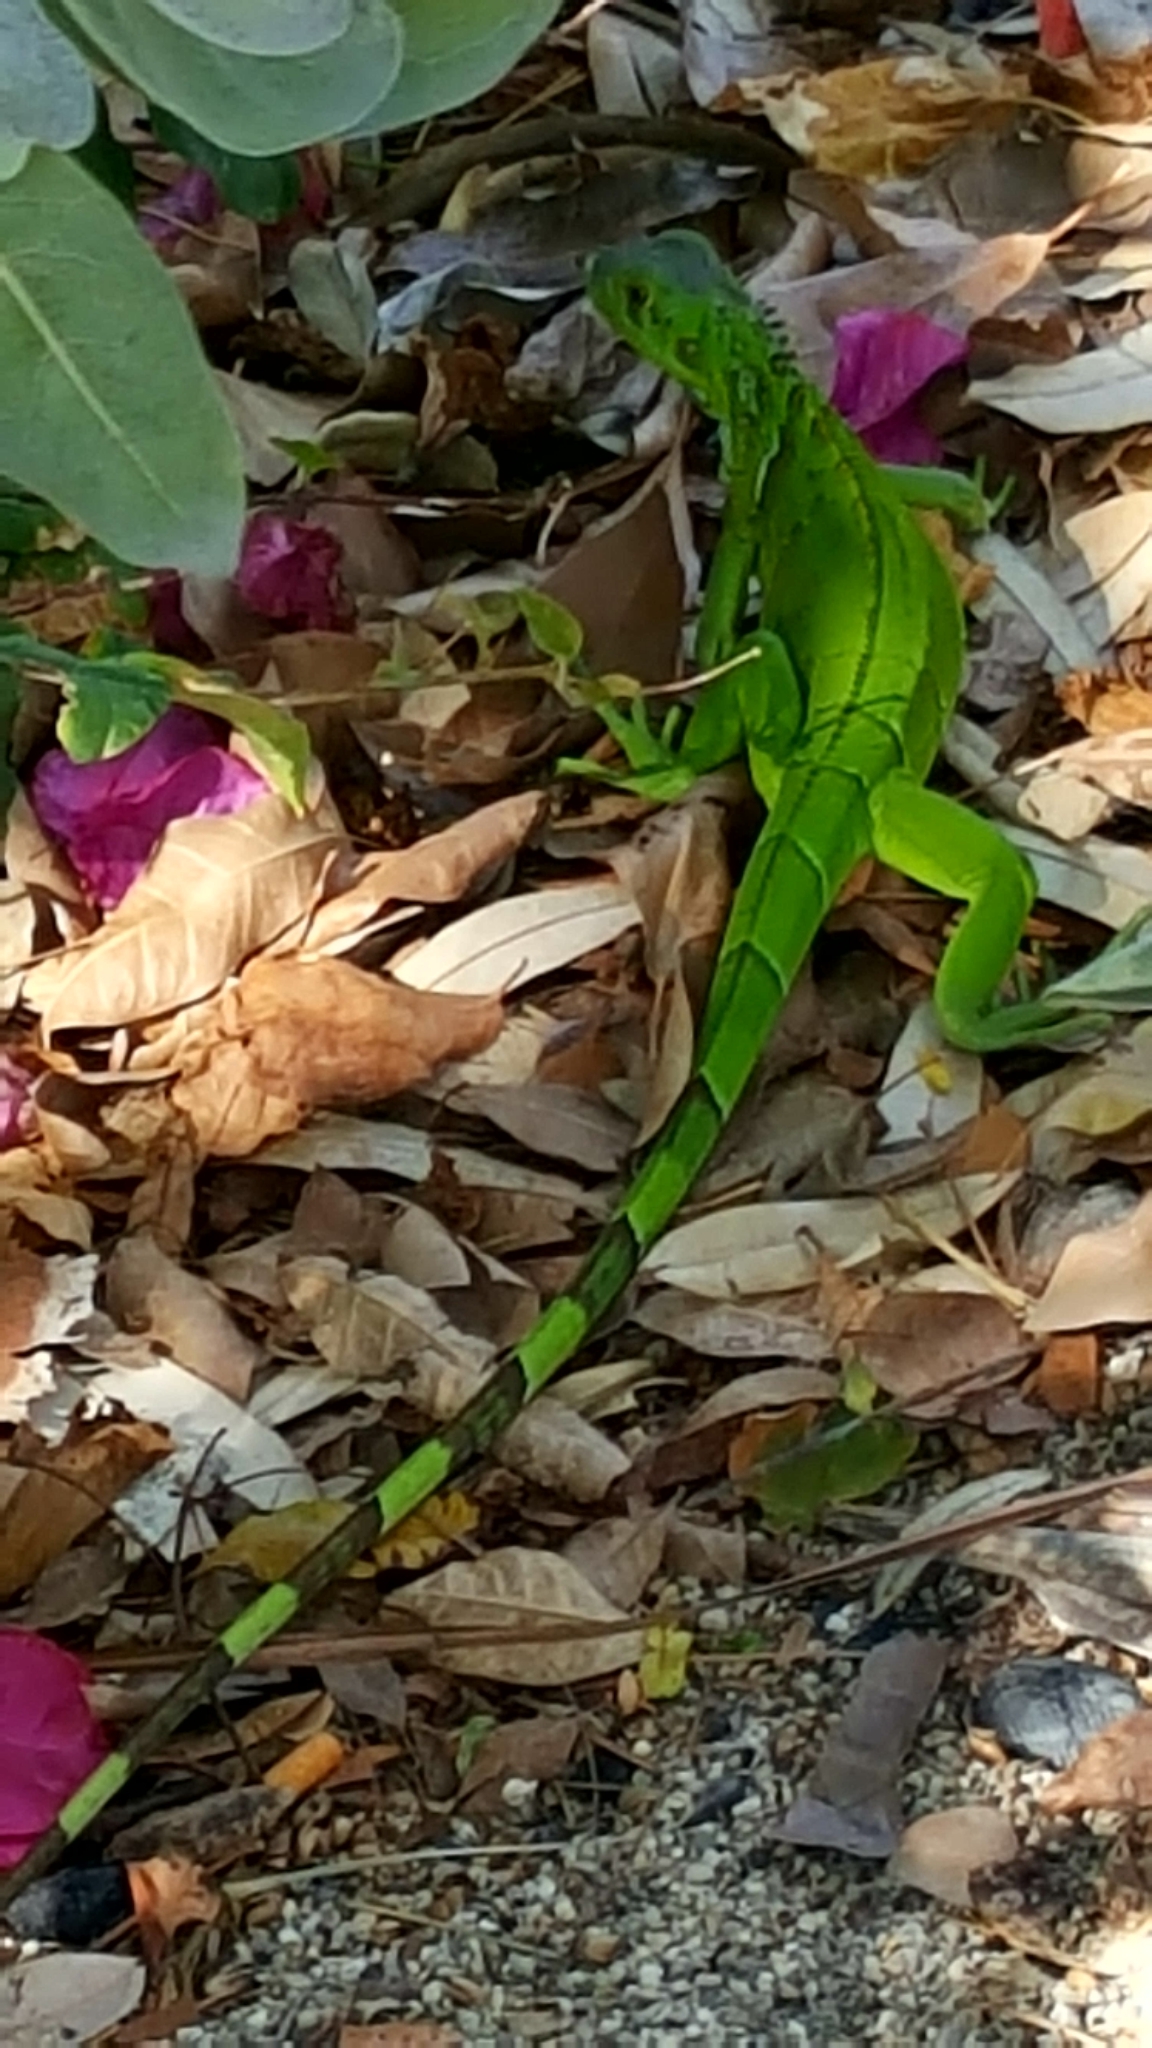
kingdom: Animalia
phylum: Chordata
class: Squamata
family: Iguanidae
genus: Iguana
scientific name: Iguana iguana
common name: Green iguana
